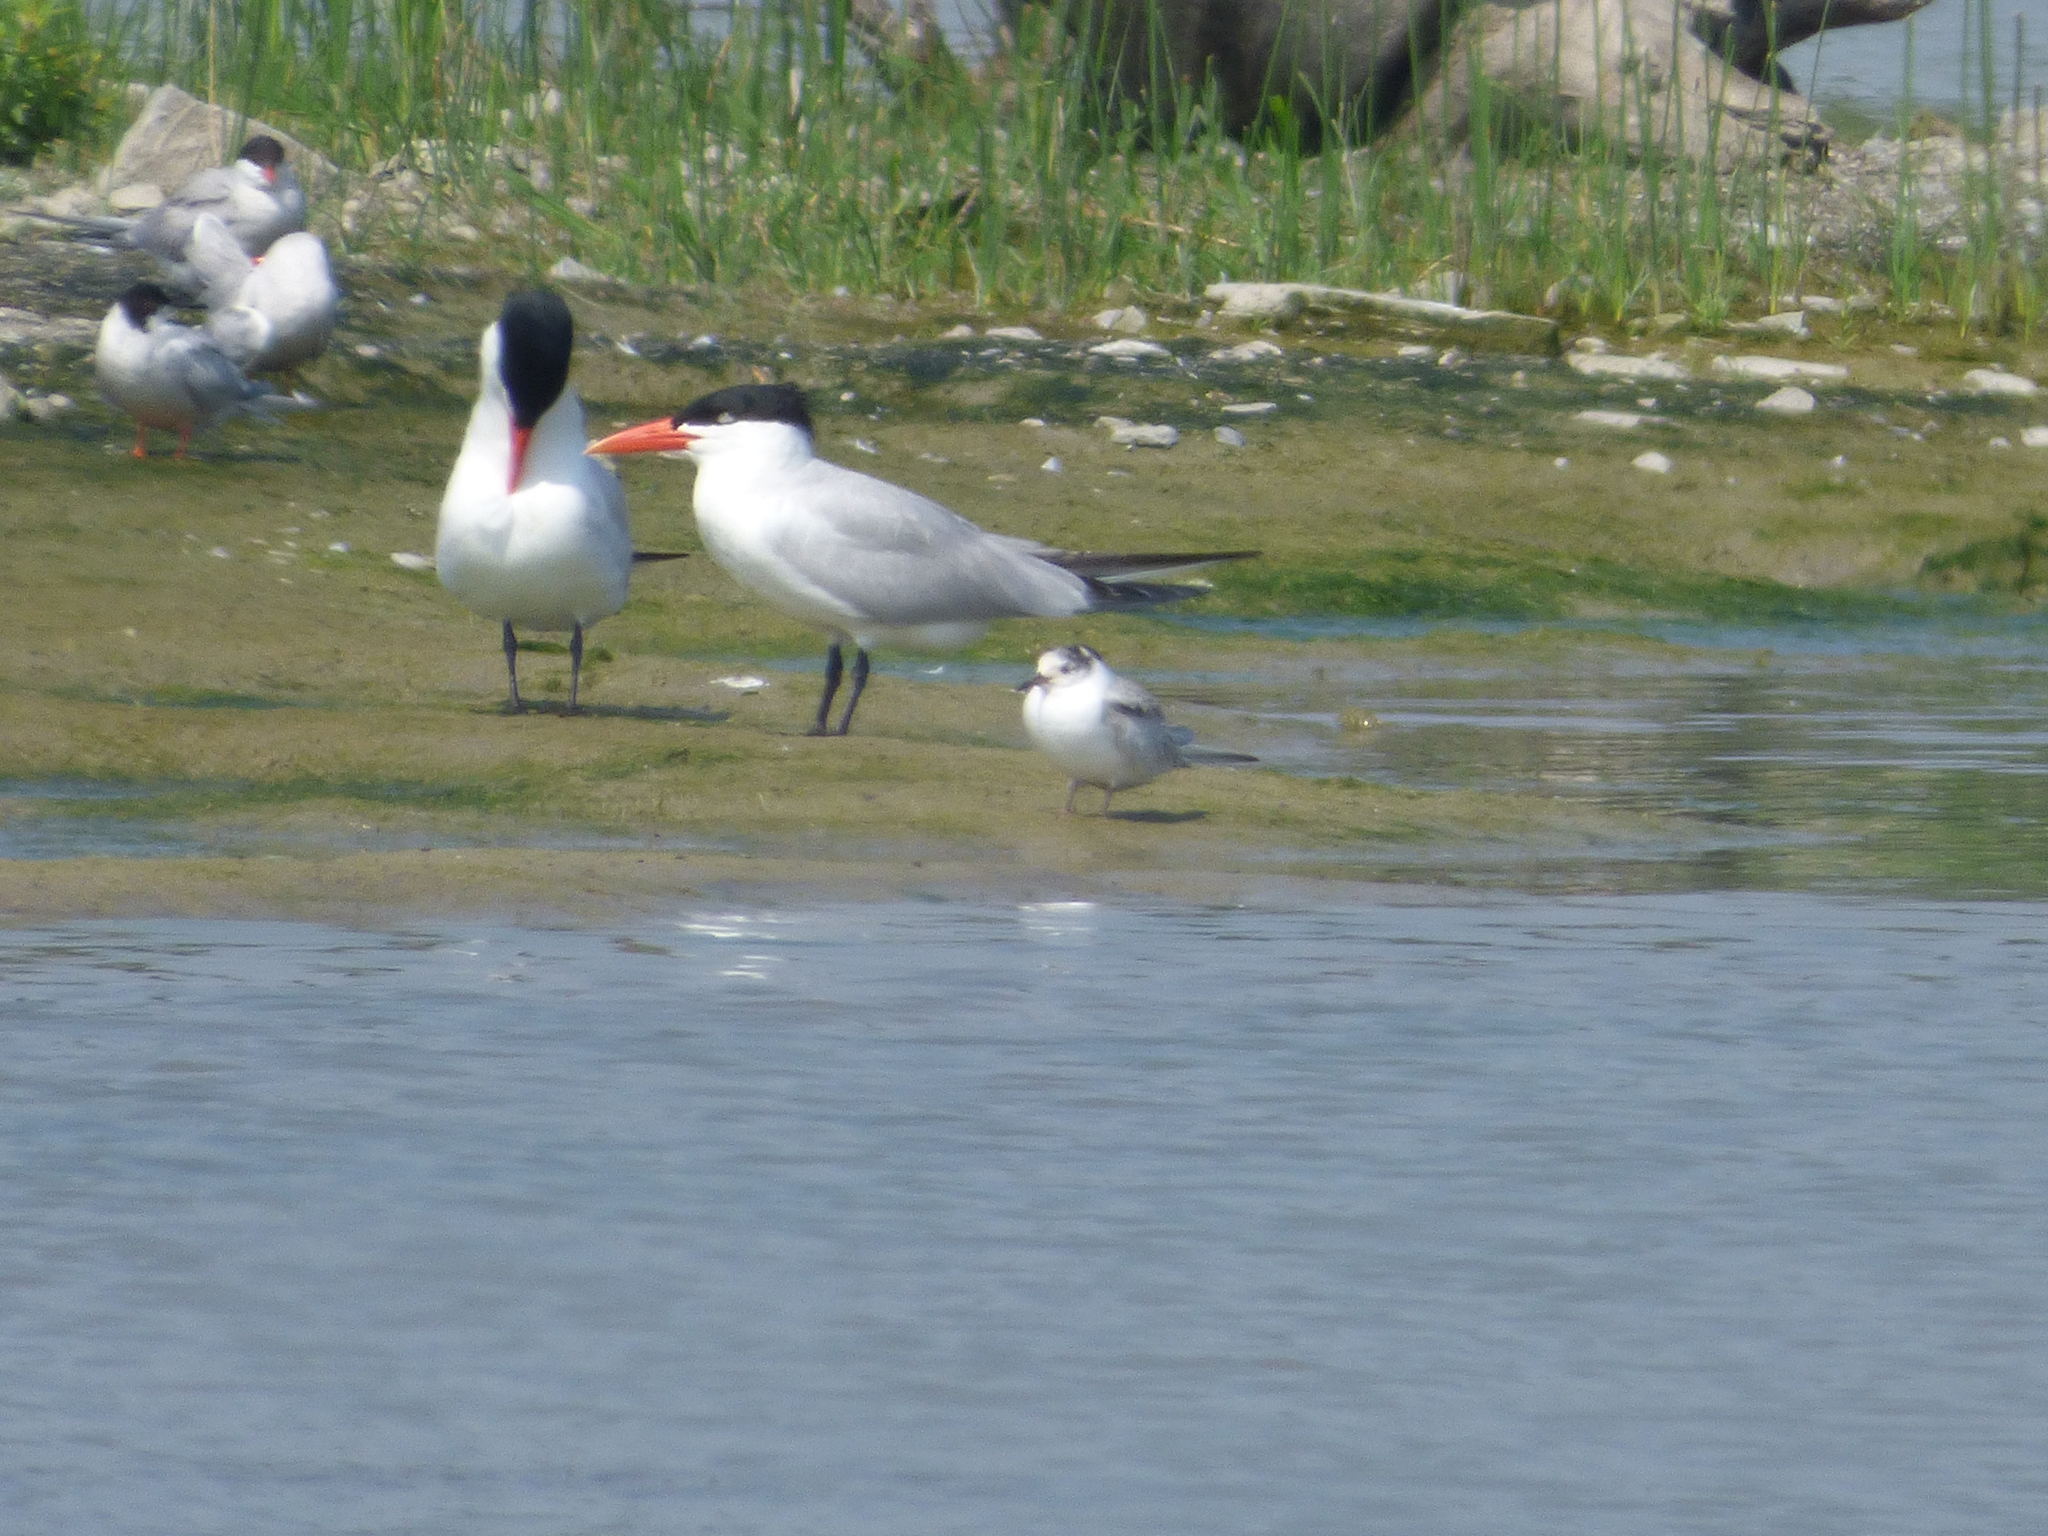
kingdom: Animalia
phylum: Chordata
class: Aves
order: Charadriiformes
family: Laridae
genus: Sterna
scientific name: Sterna hirundo
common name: Common tern
